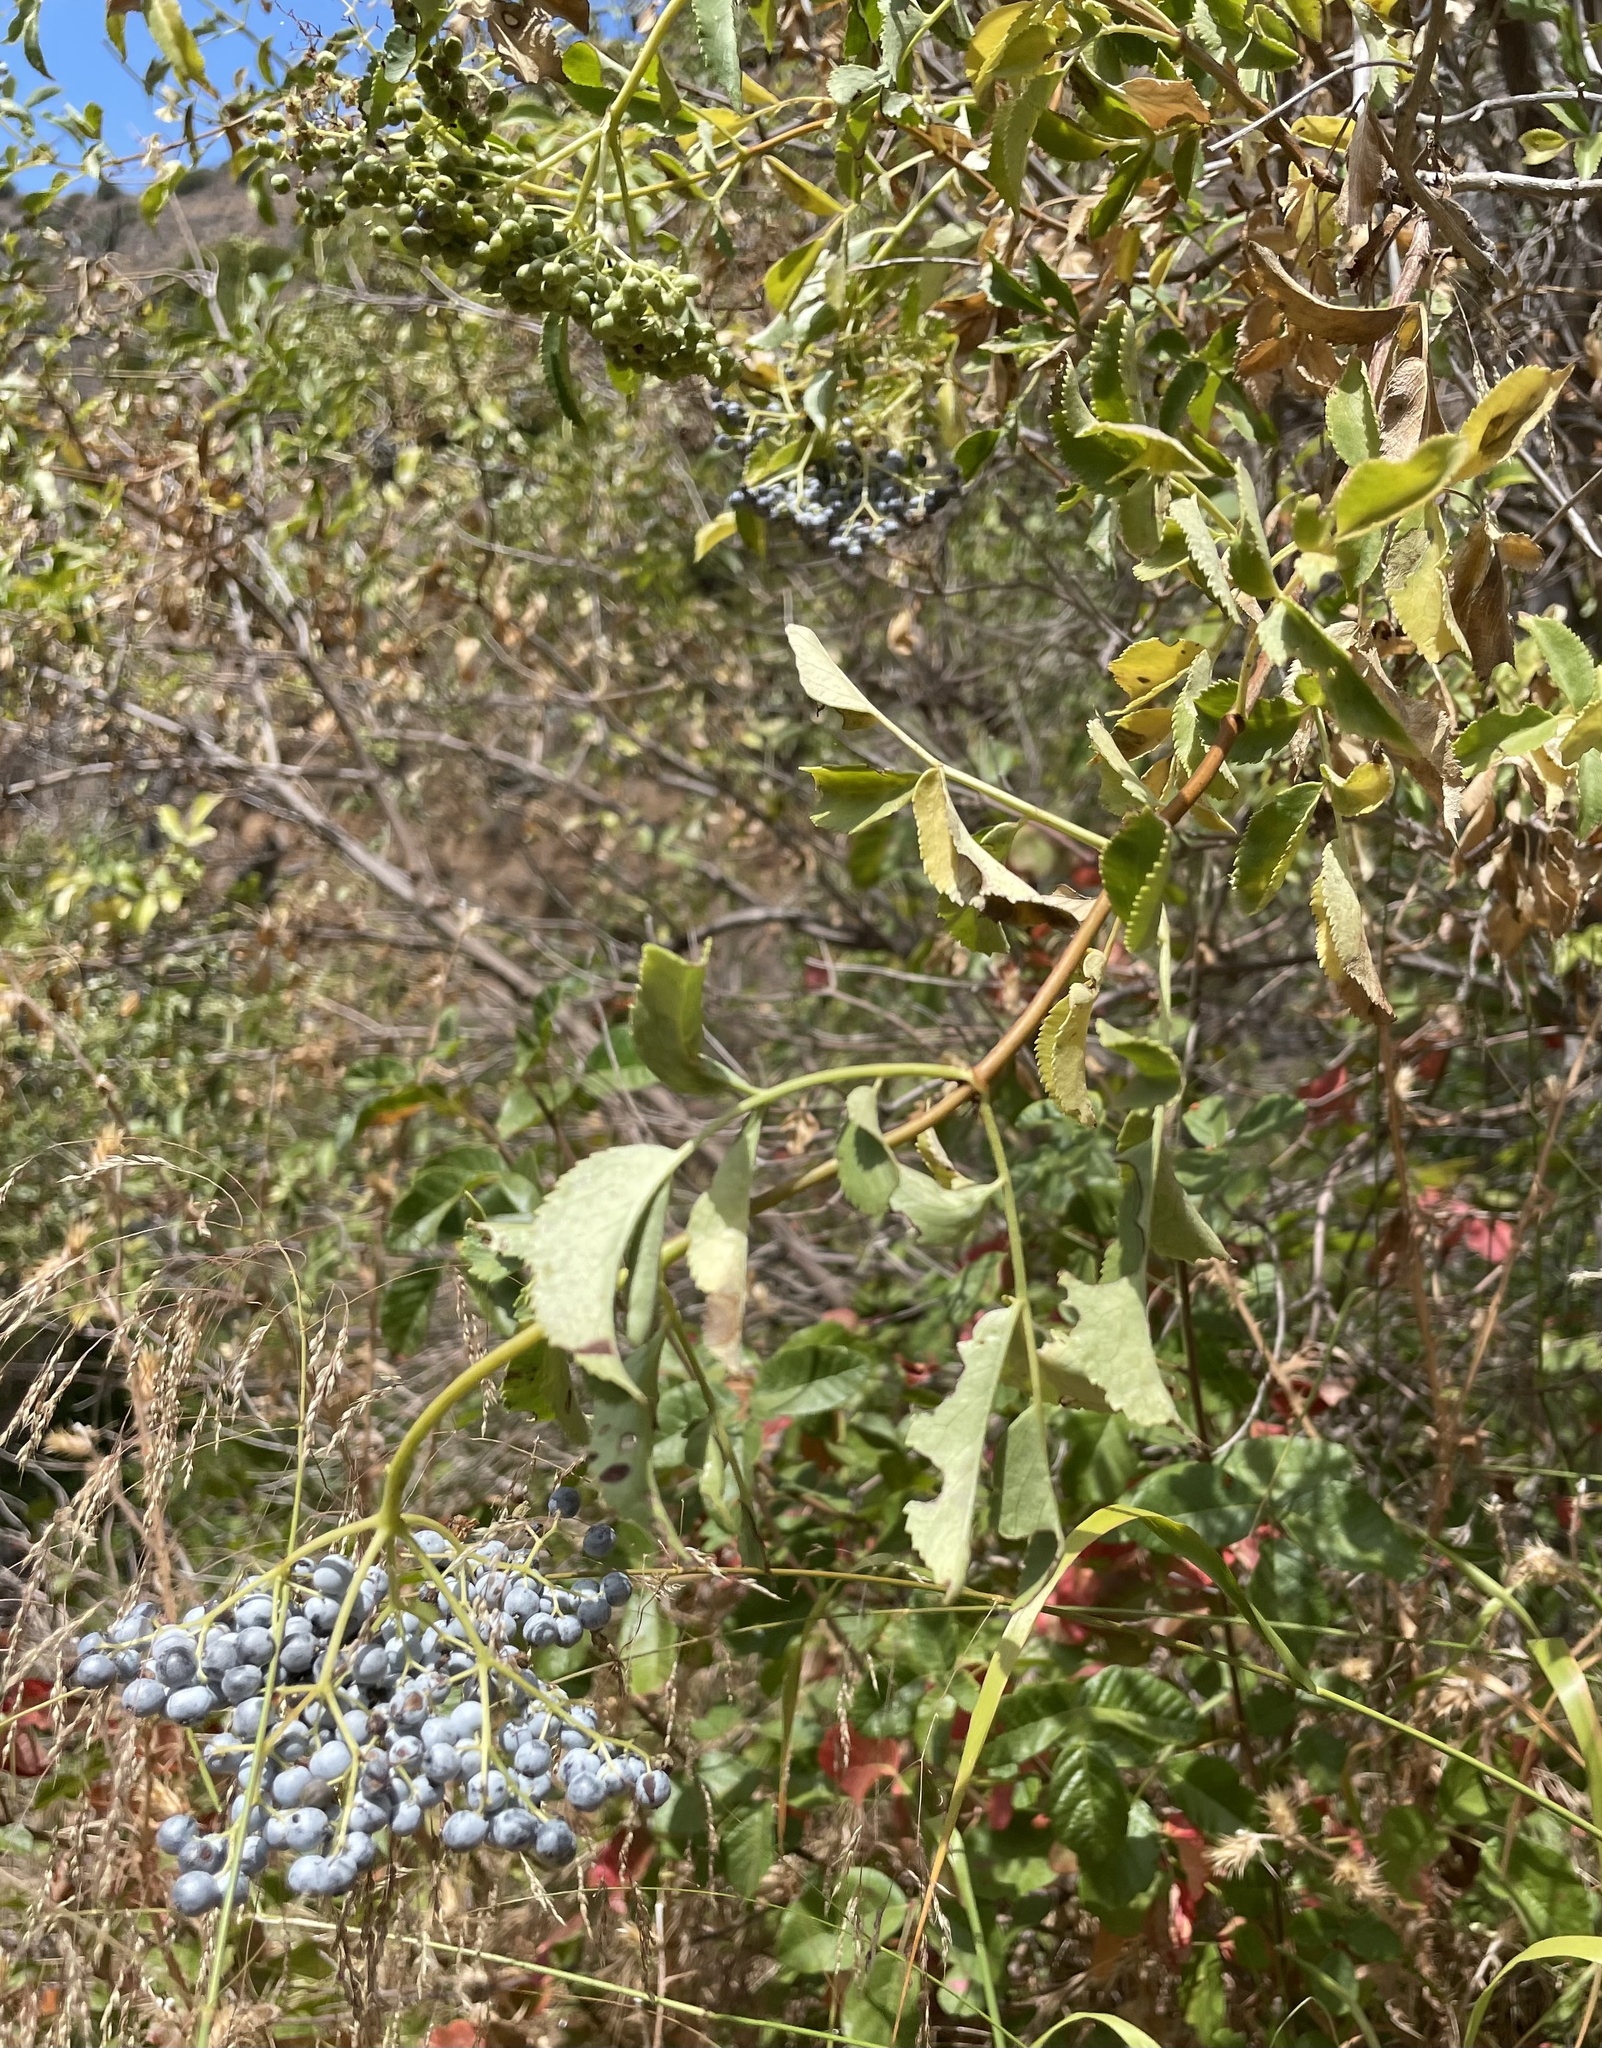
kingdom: Plantae
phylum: Tracheophyta
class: Magnoliopsida
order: Dipsacales
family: Viburnaceae
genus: Sambucus
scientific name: Sambucus cerulea
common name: Blue elder
